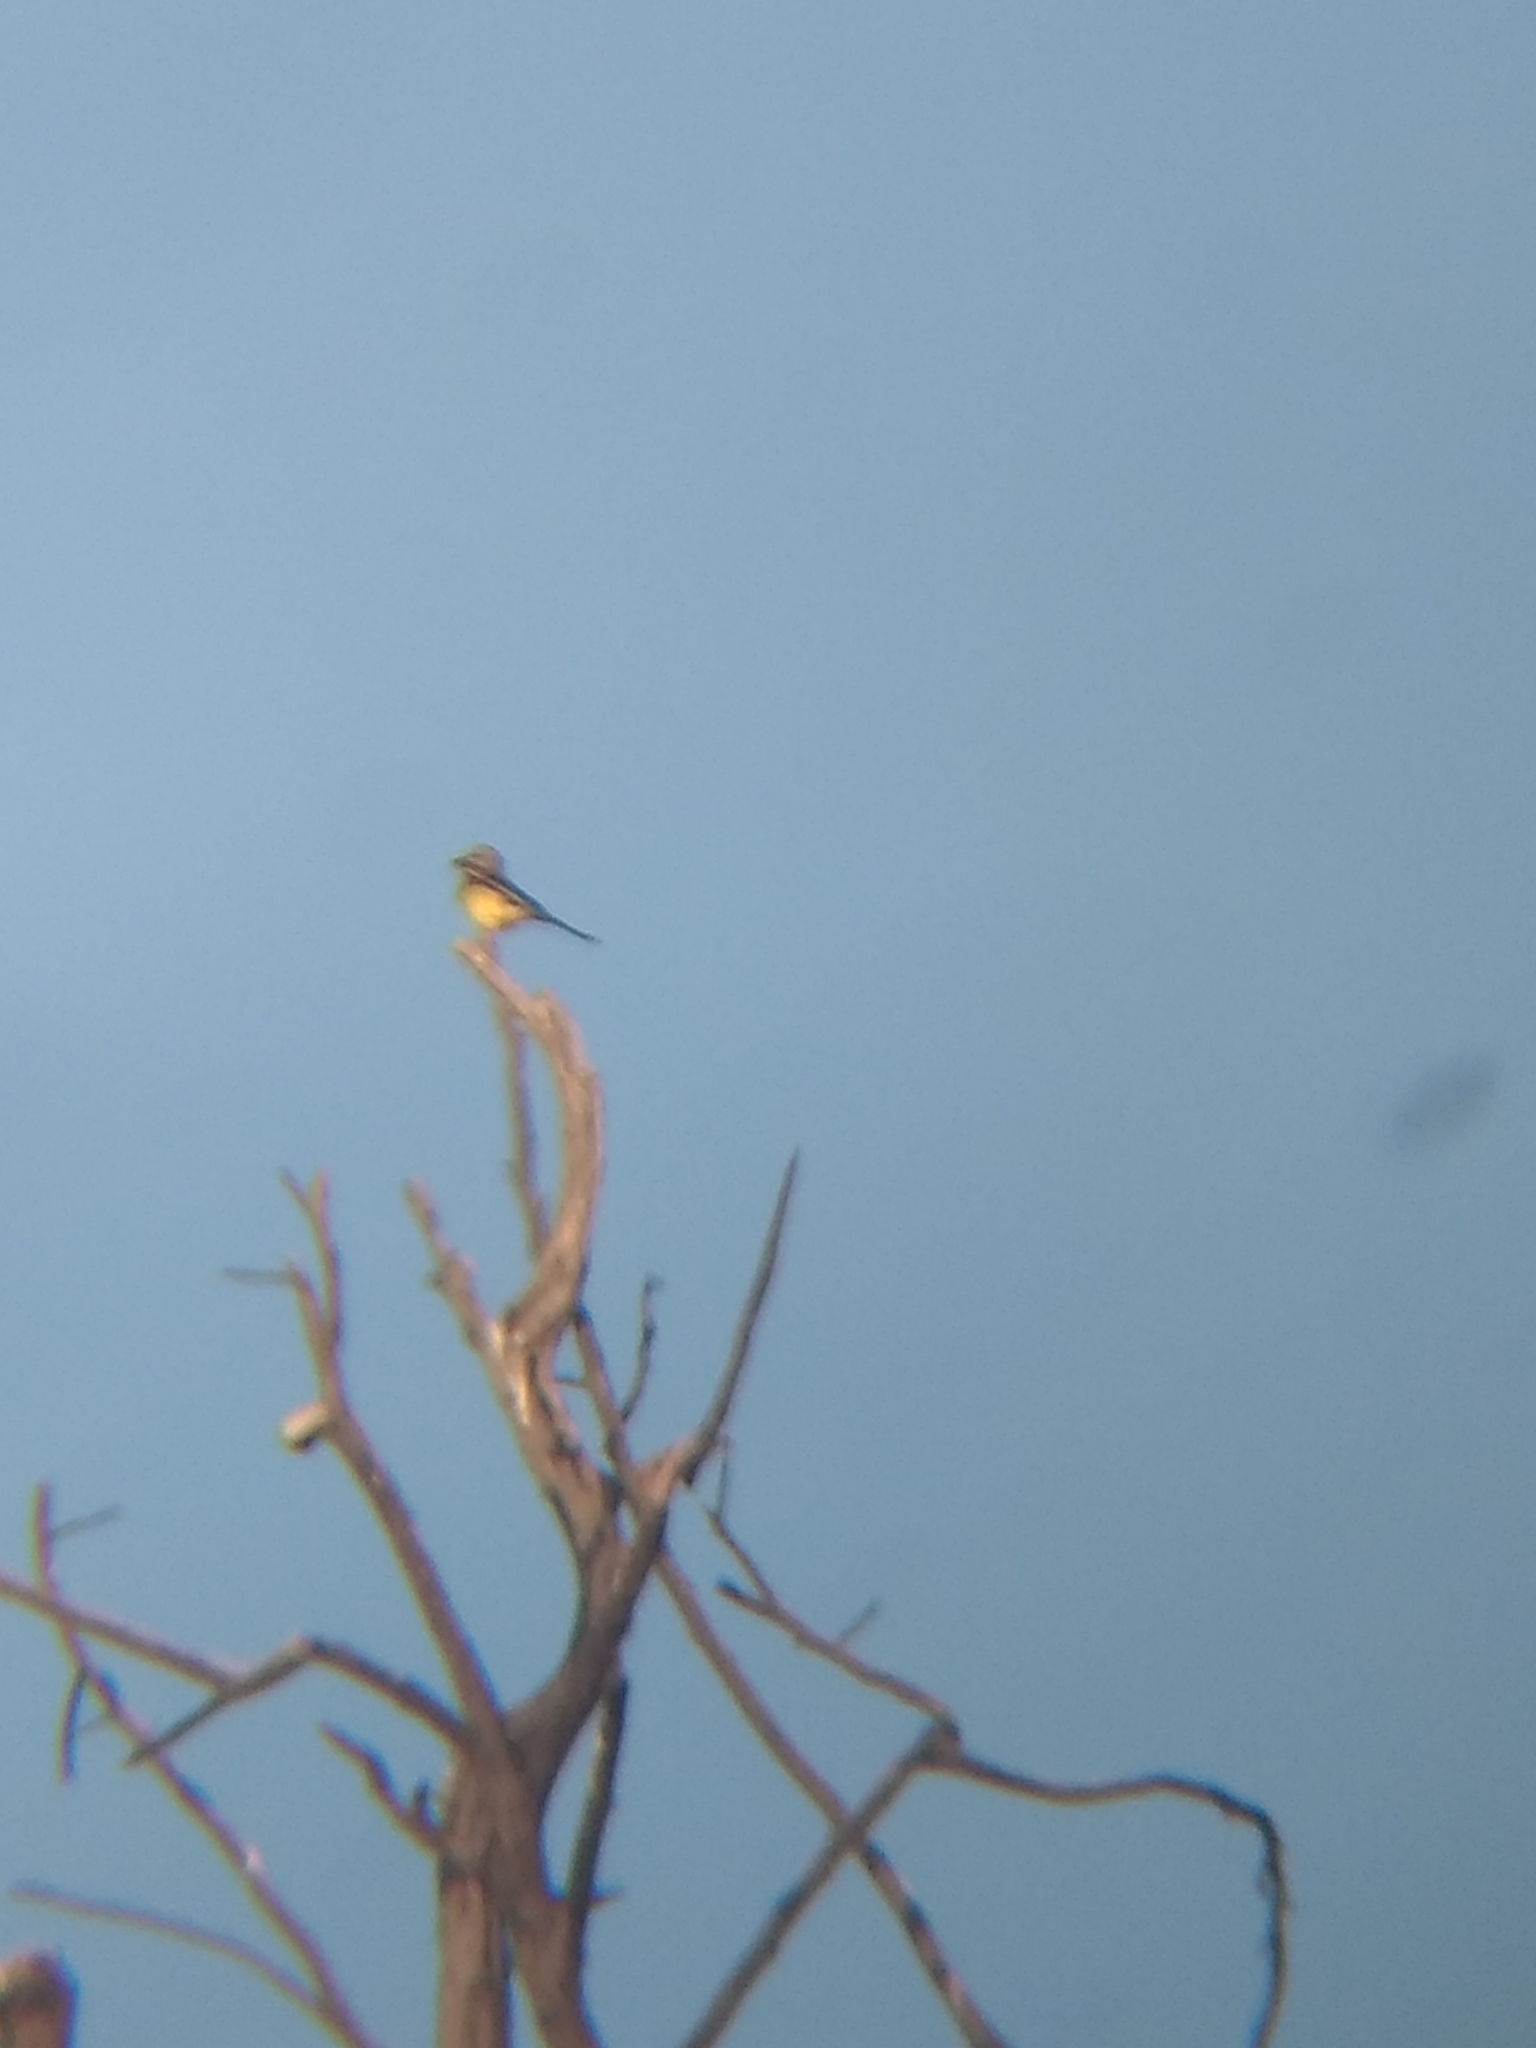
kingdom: Animalia
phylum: Chordata
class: Aves
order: Passeriformes
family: Tyrannidae
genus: Tyrannus
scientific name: Tyrannus
